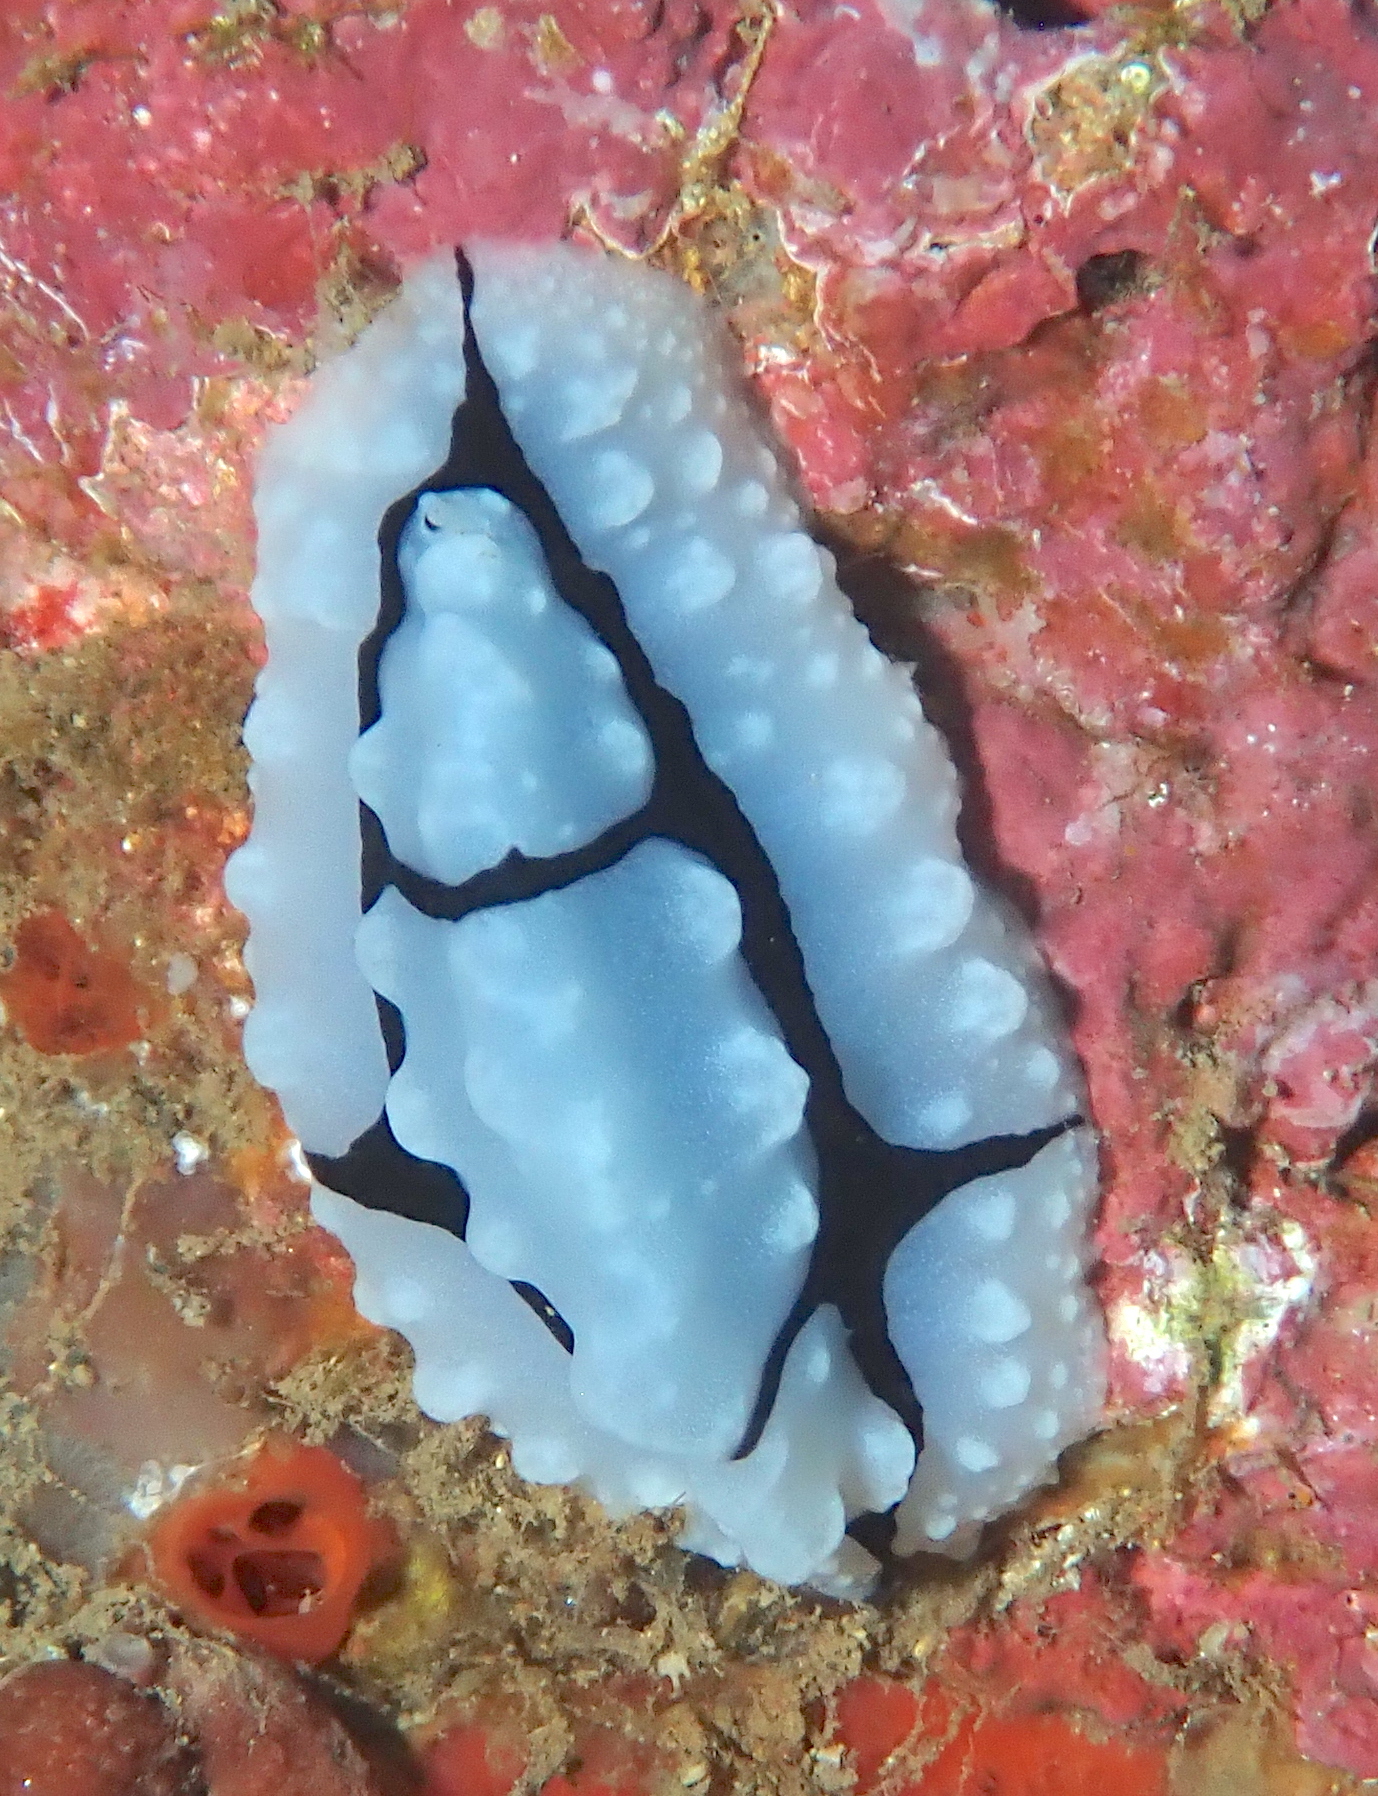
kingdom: Animalia
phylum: Mollusca
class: Gastropoda
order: Nudibranchia
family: Phyllidiidae
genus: Phyllidiopsis
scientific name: Phyllidiopsis shireenae
